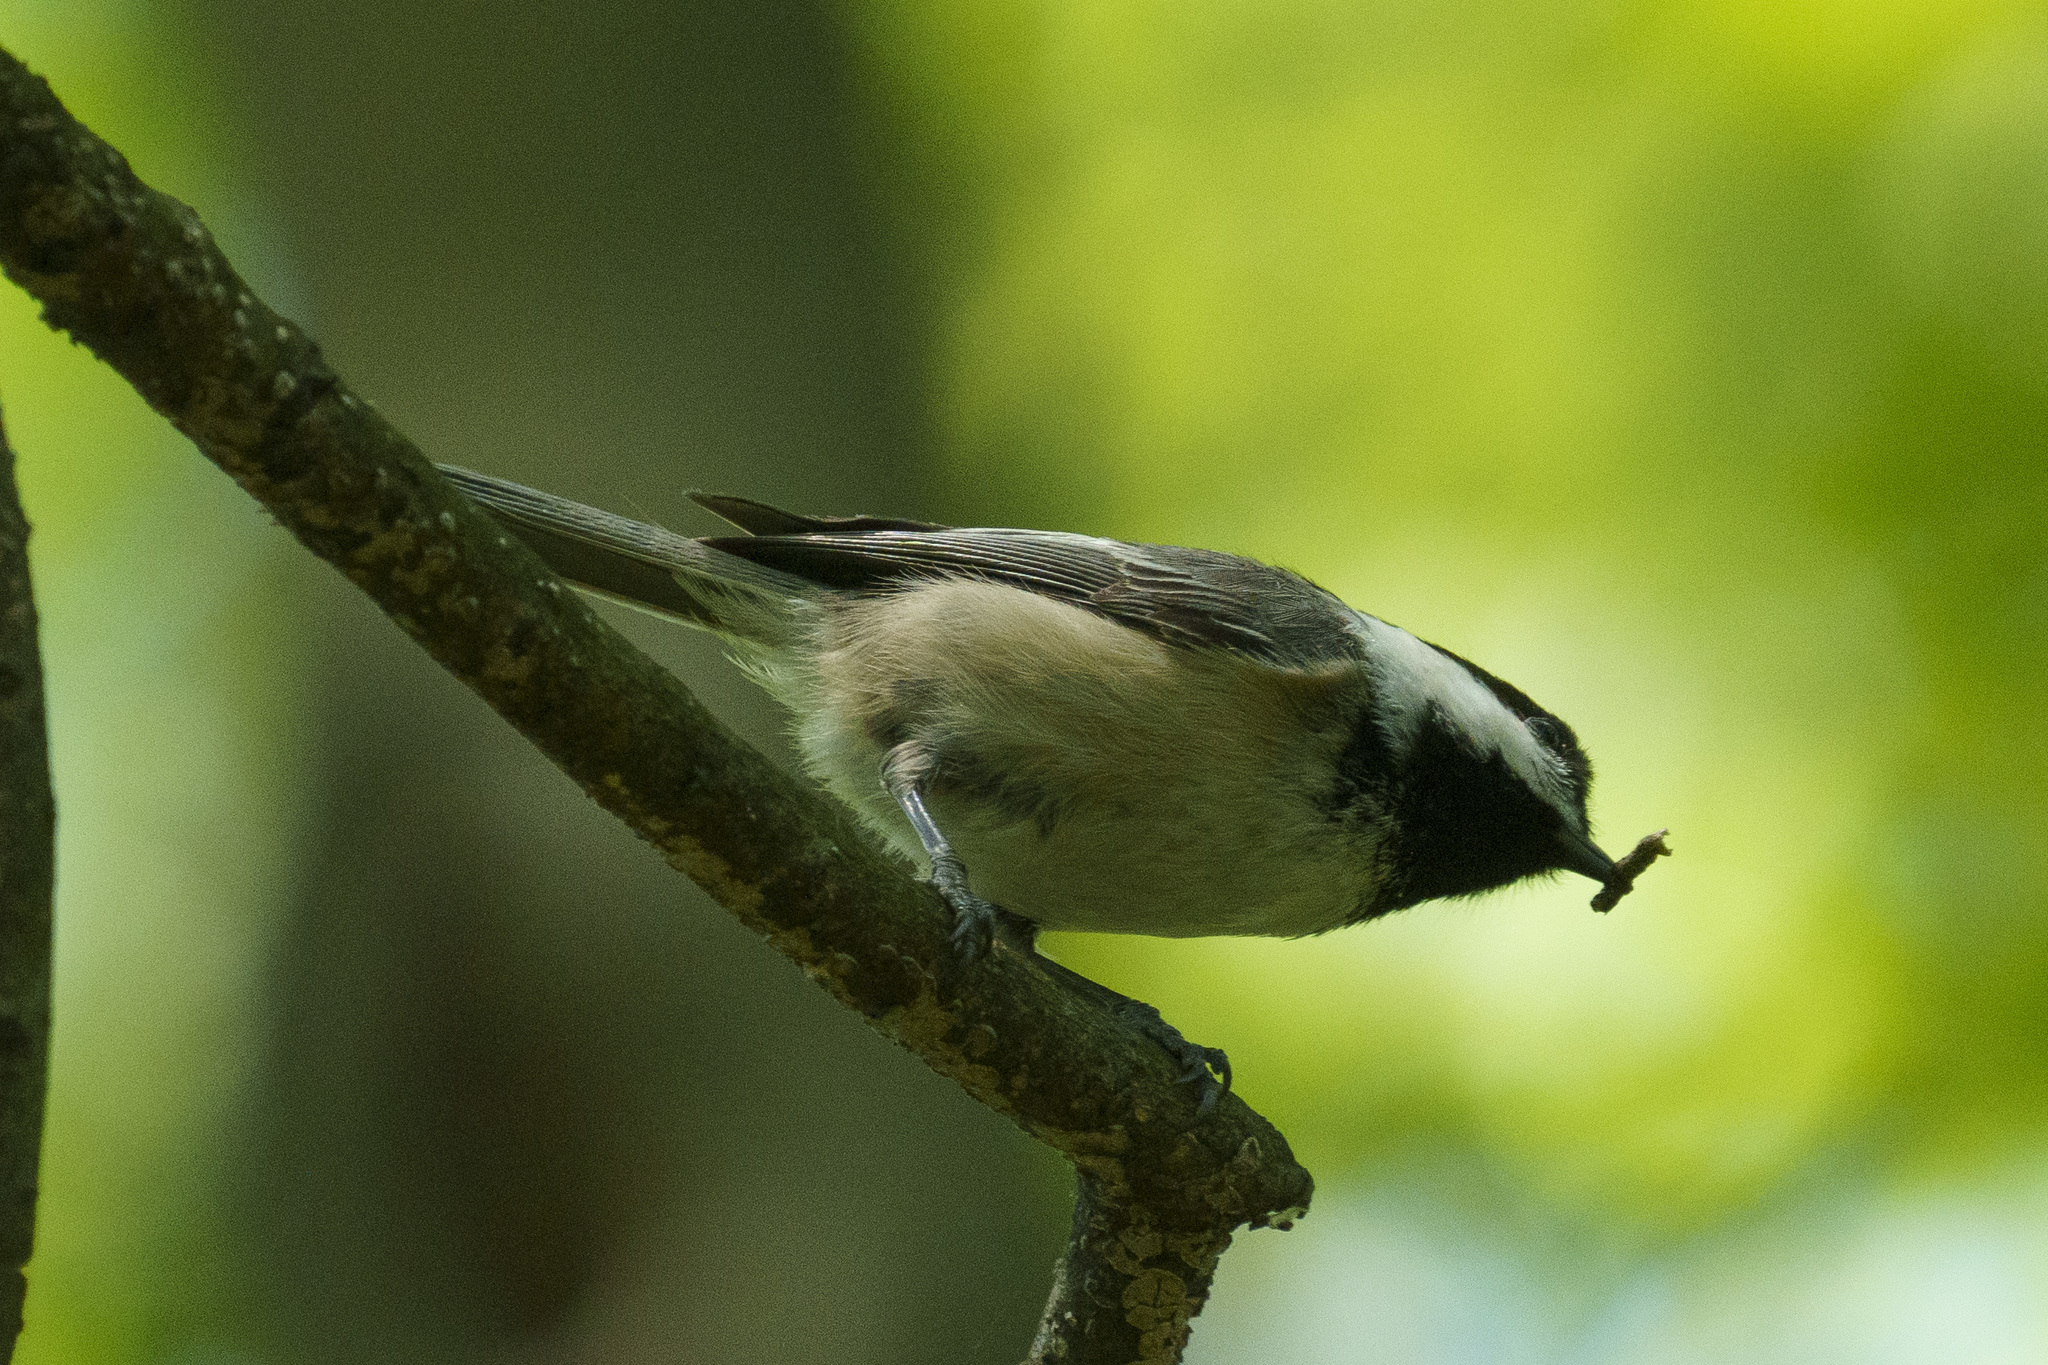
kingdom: Animalia
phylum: Chordata
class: Aves
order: Passeriformes
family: Paridae
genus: Poecile
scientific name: Poecile atricapillus
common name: Black-capped chickadee
